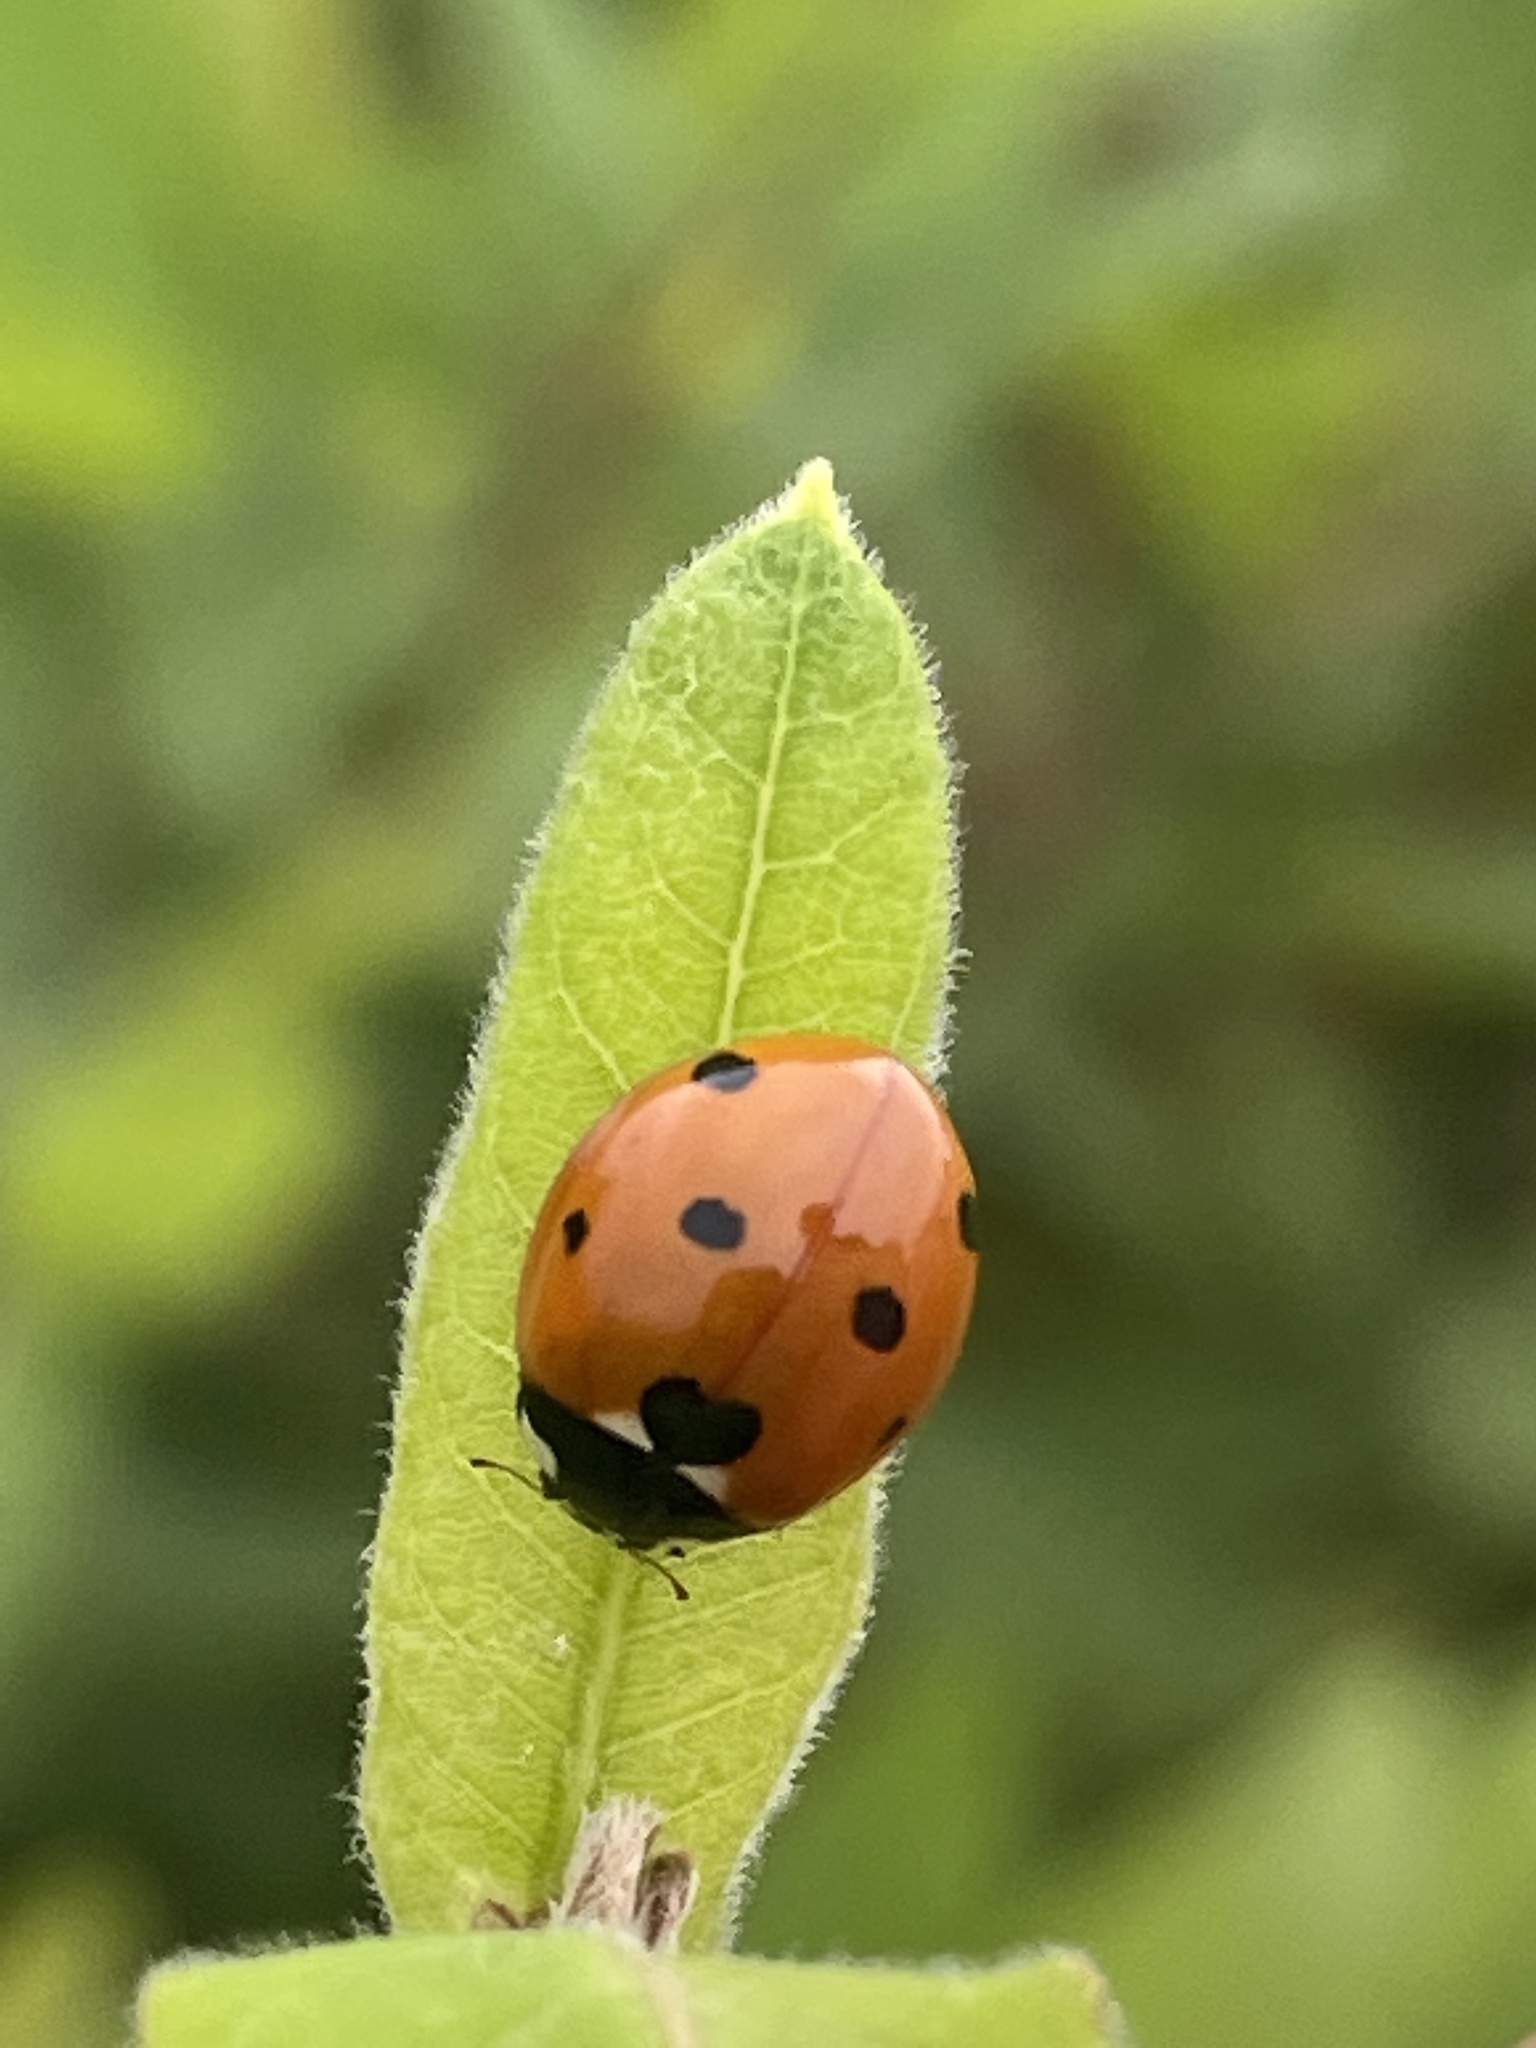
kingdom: Animalia
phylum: Arthropoda
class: Insecta
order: Coleoptera
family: Coccinellidae
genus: Coccinella
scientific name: Coccinella septempunctata
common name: Sevenspotted lady beetle
